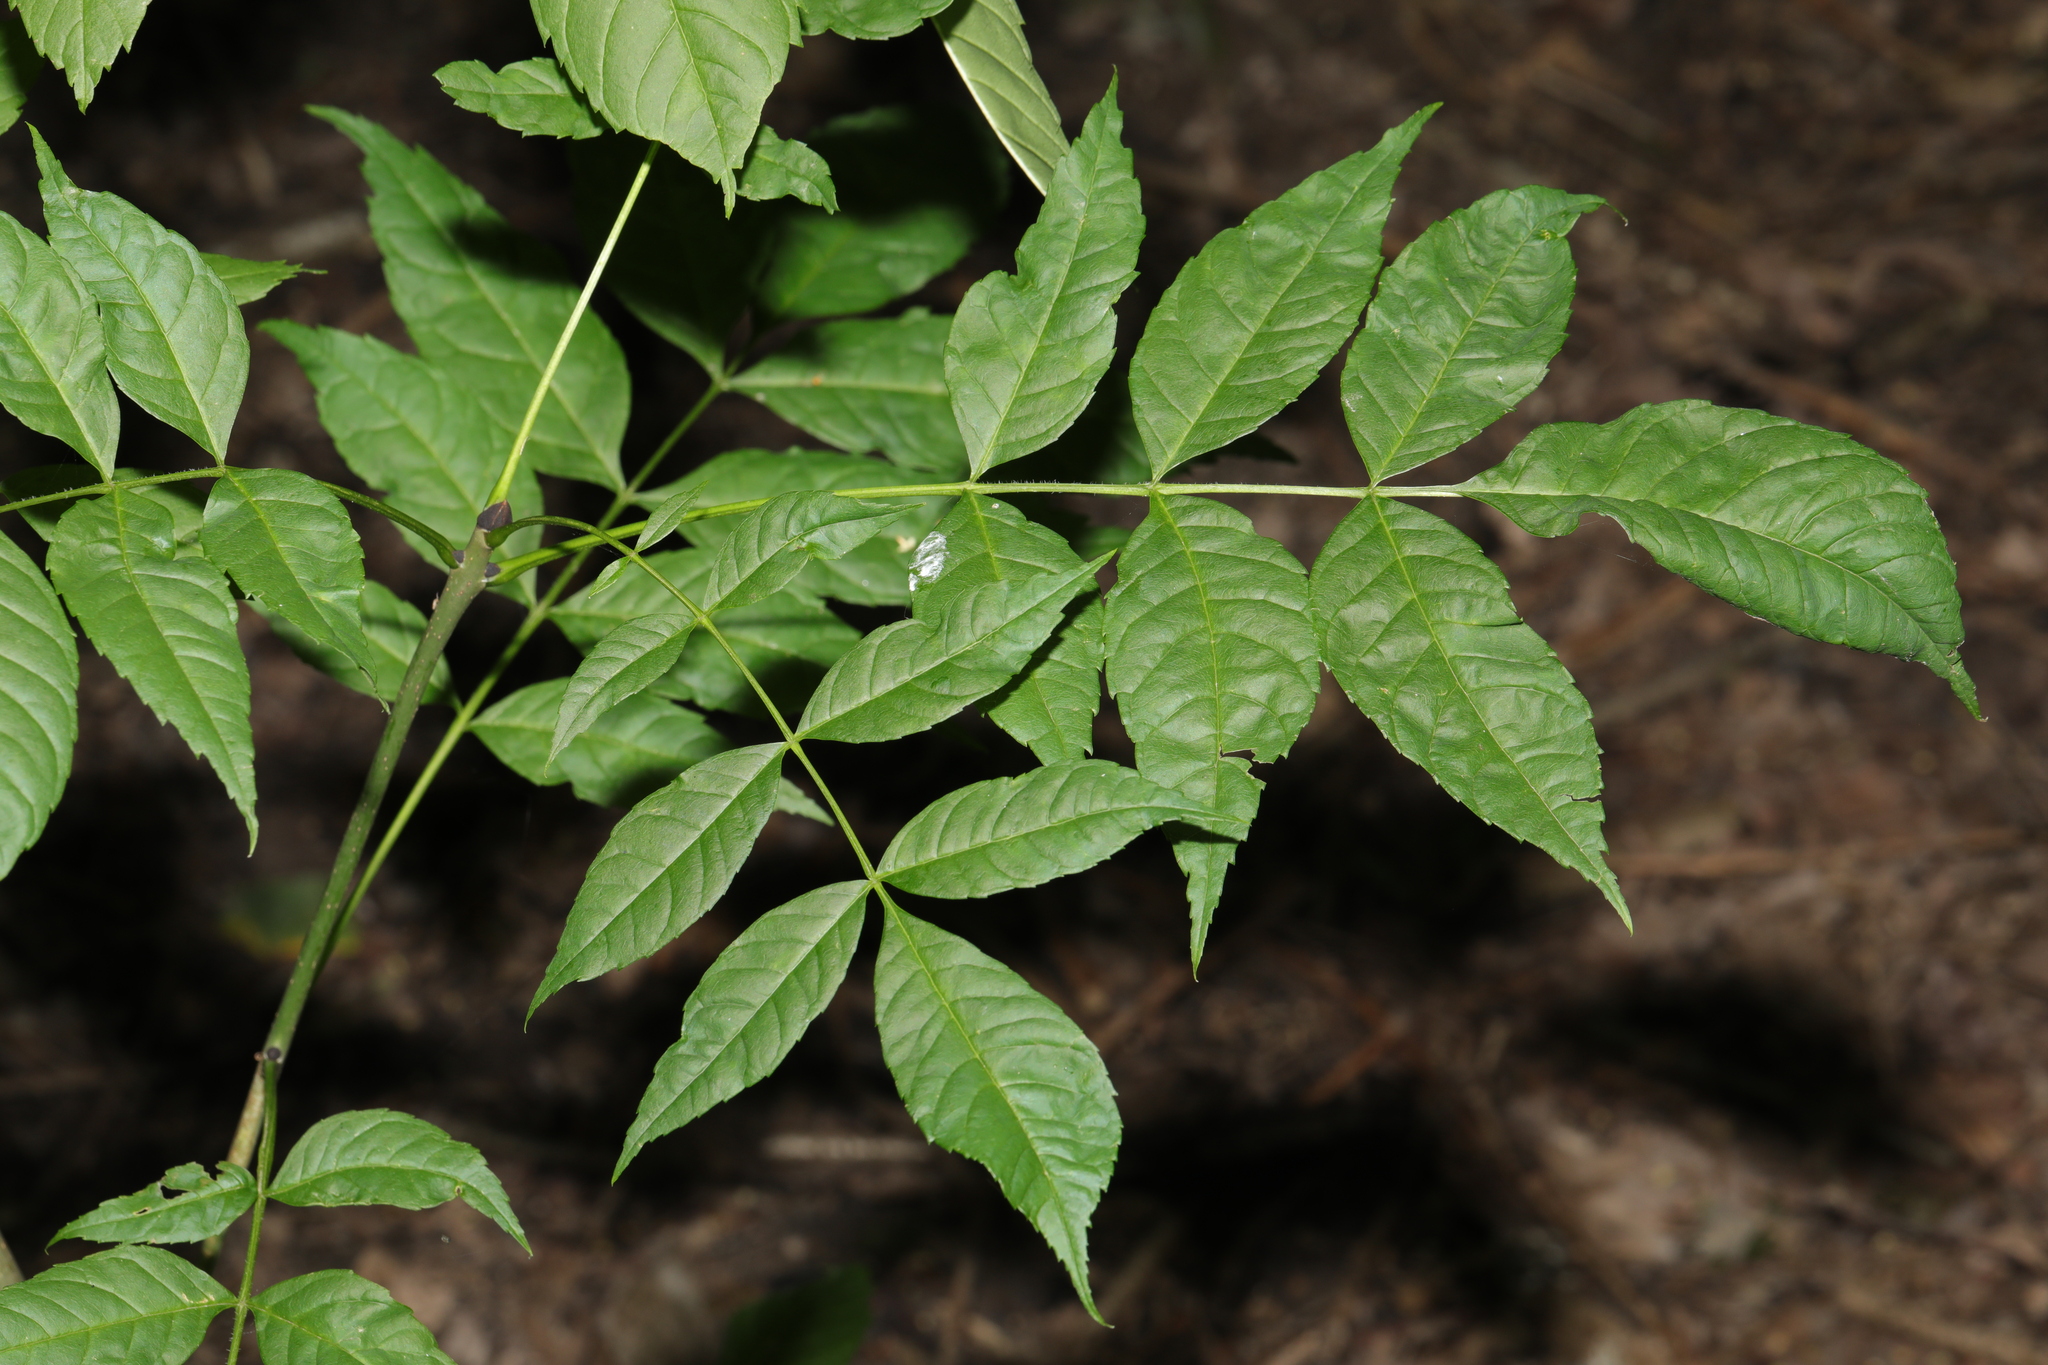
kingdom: Plantae
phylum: Tracheophyta
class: Magnoliopsida
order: Lamiales
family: Oleaceae
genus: Fraxinus
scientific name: Fraxinus excelsior
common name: European ash
